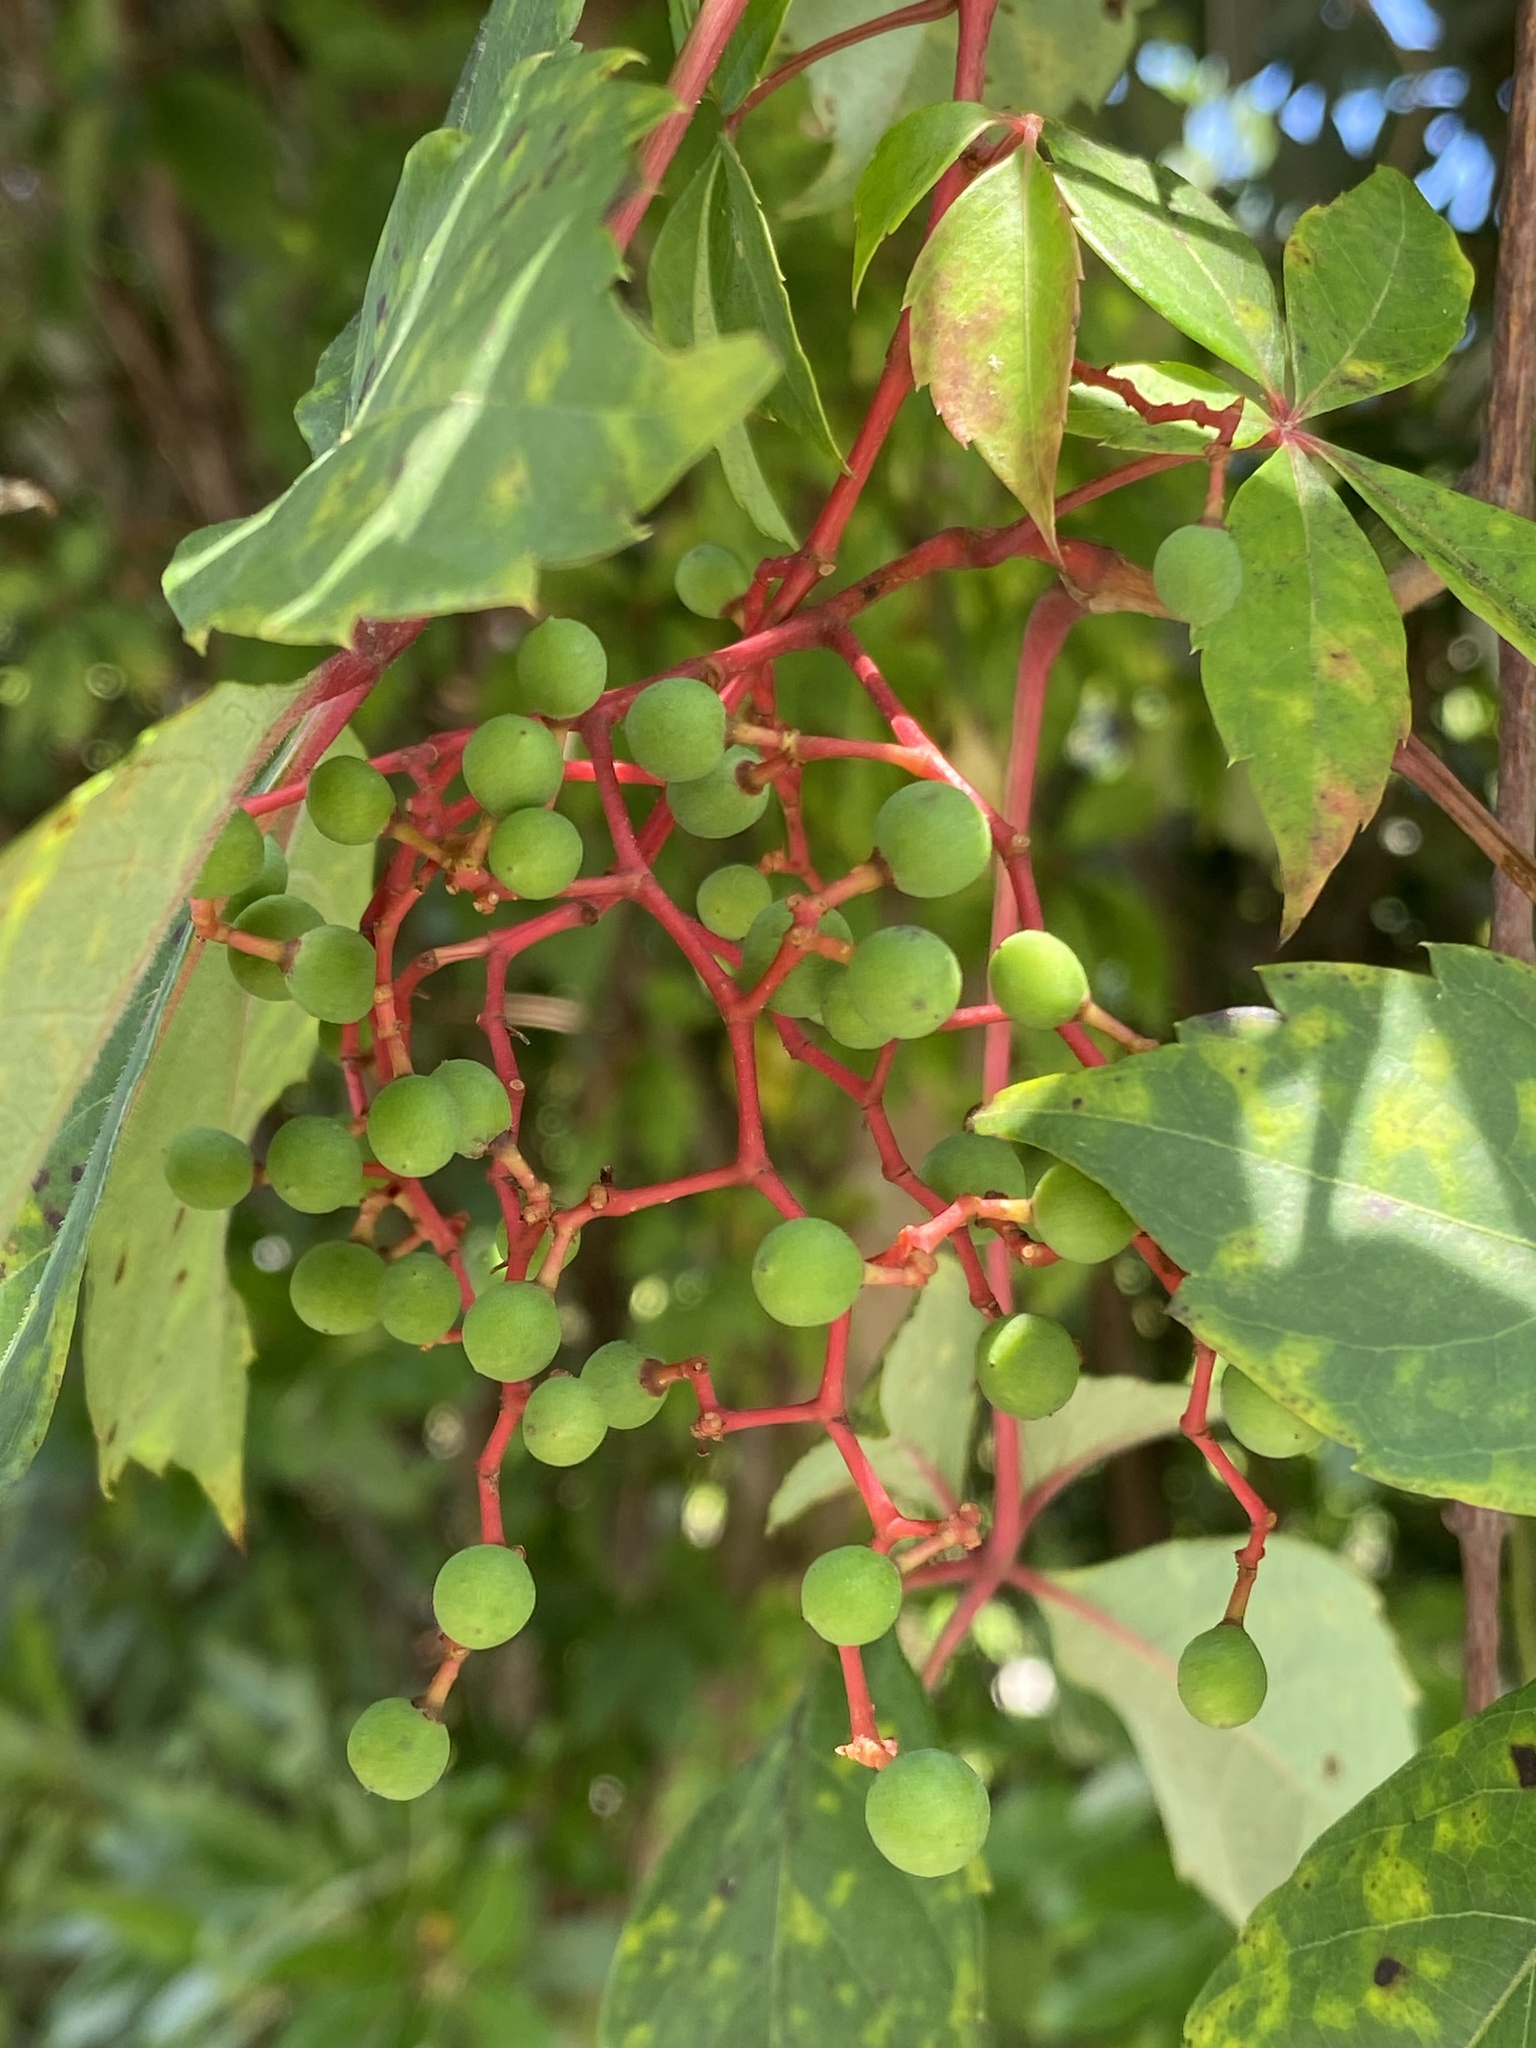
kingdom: Plantae
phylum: Tracheophyta
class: Magnoliopsida
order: Vitales
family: Vitaceae
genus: Parthenocissus
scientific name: Parthenocissus quinquefolia
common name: Virginia-creeper
